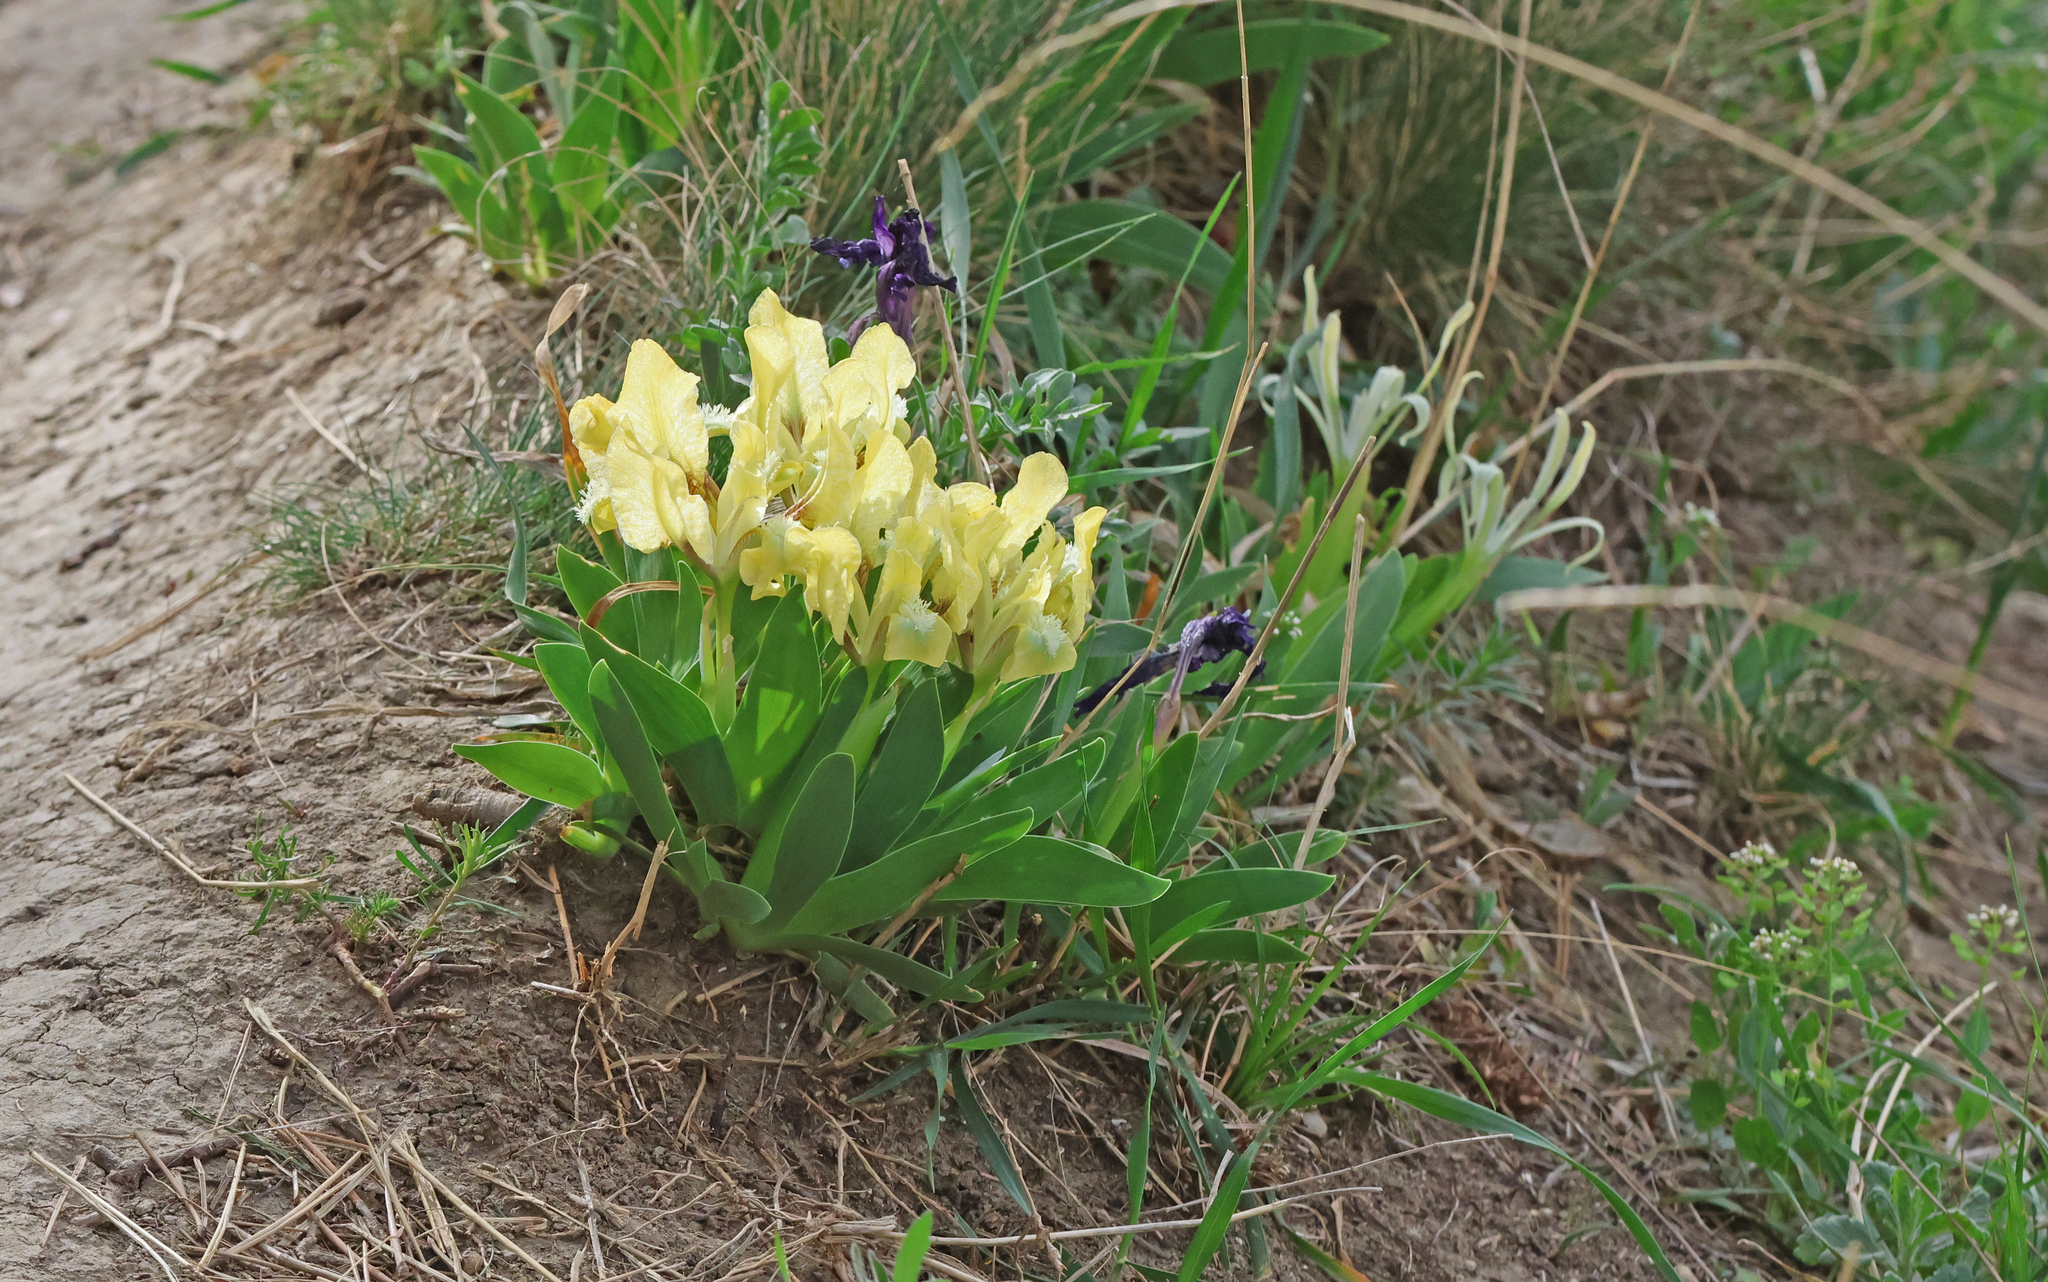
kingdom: Plantae
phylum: Tracheophyta
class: Liliopsida
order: Asparagales
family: Iridaceae
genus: Iris
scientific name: Iris pumila
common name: Dwarf iris
